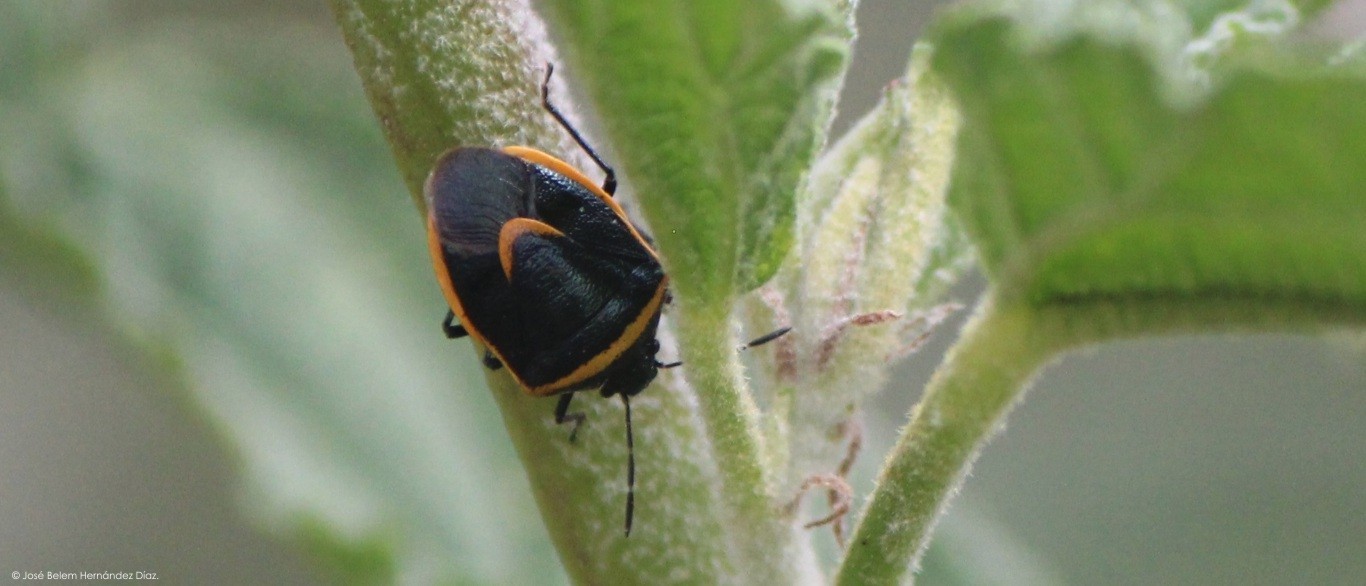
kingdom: Animalia
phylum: Arthropoda
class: Insecta
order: Hemiptera
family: Pentatomidae
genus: Cosmopepla
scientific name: Cosmopepla decorata
